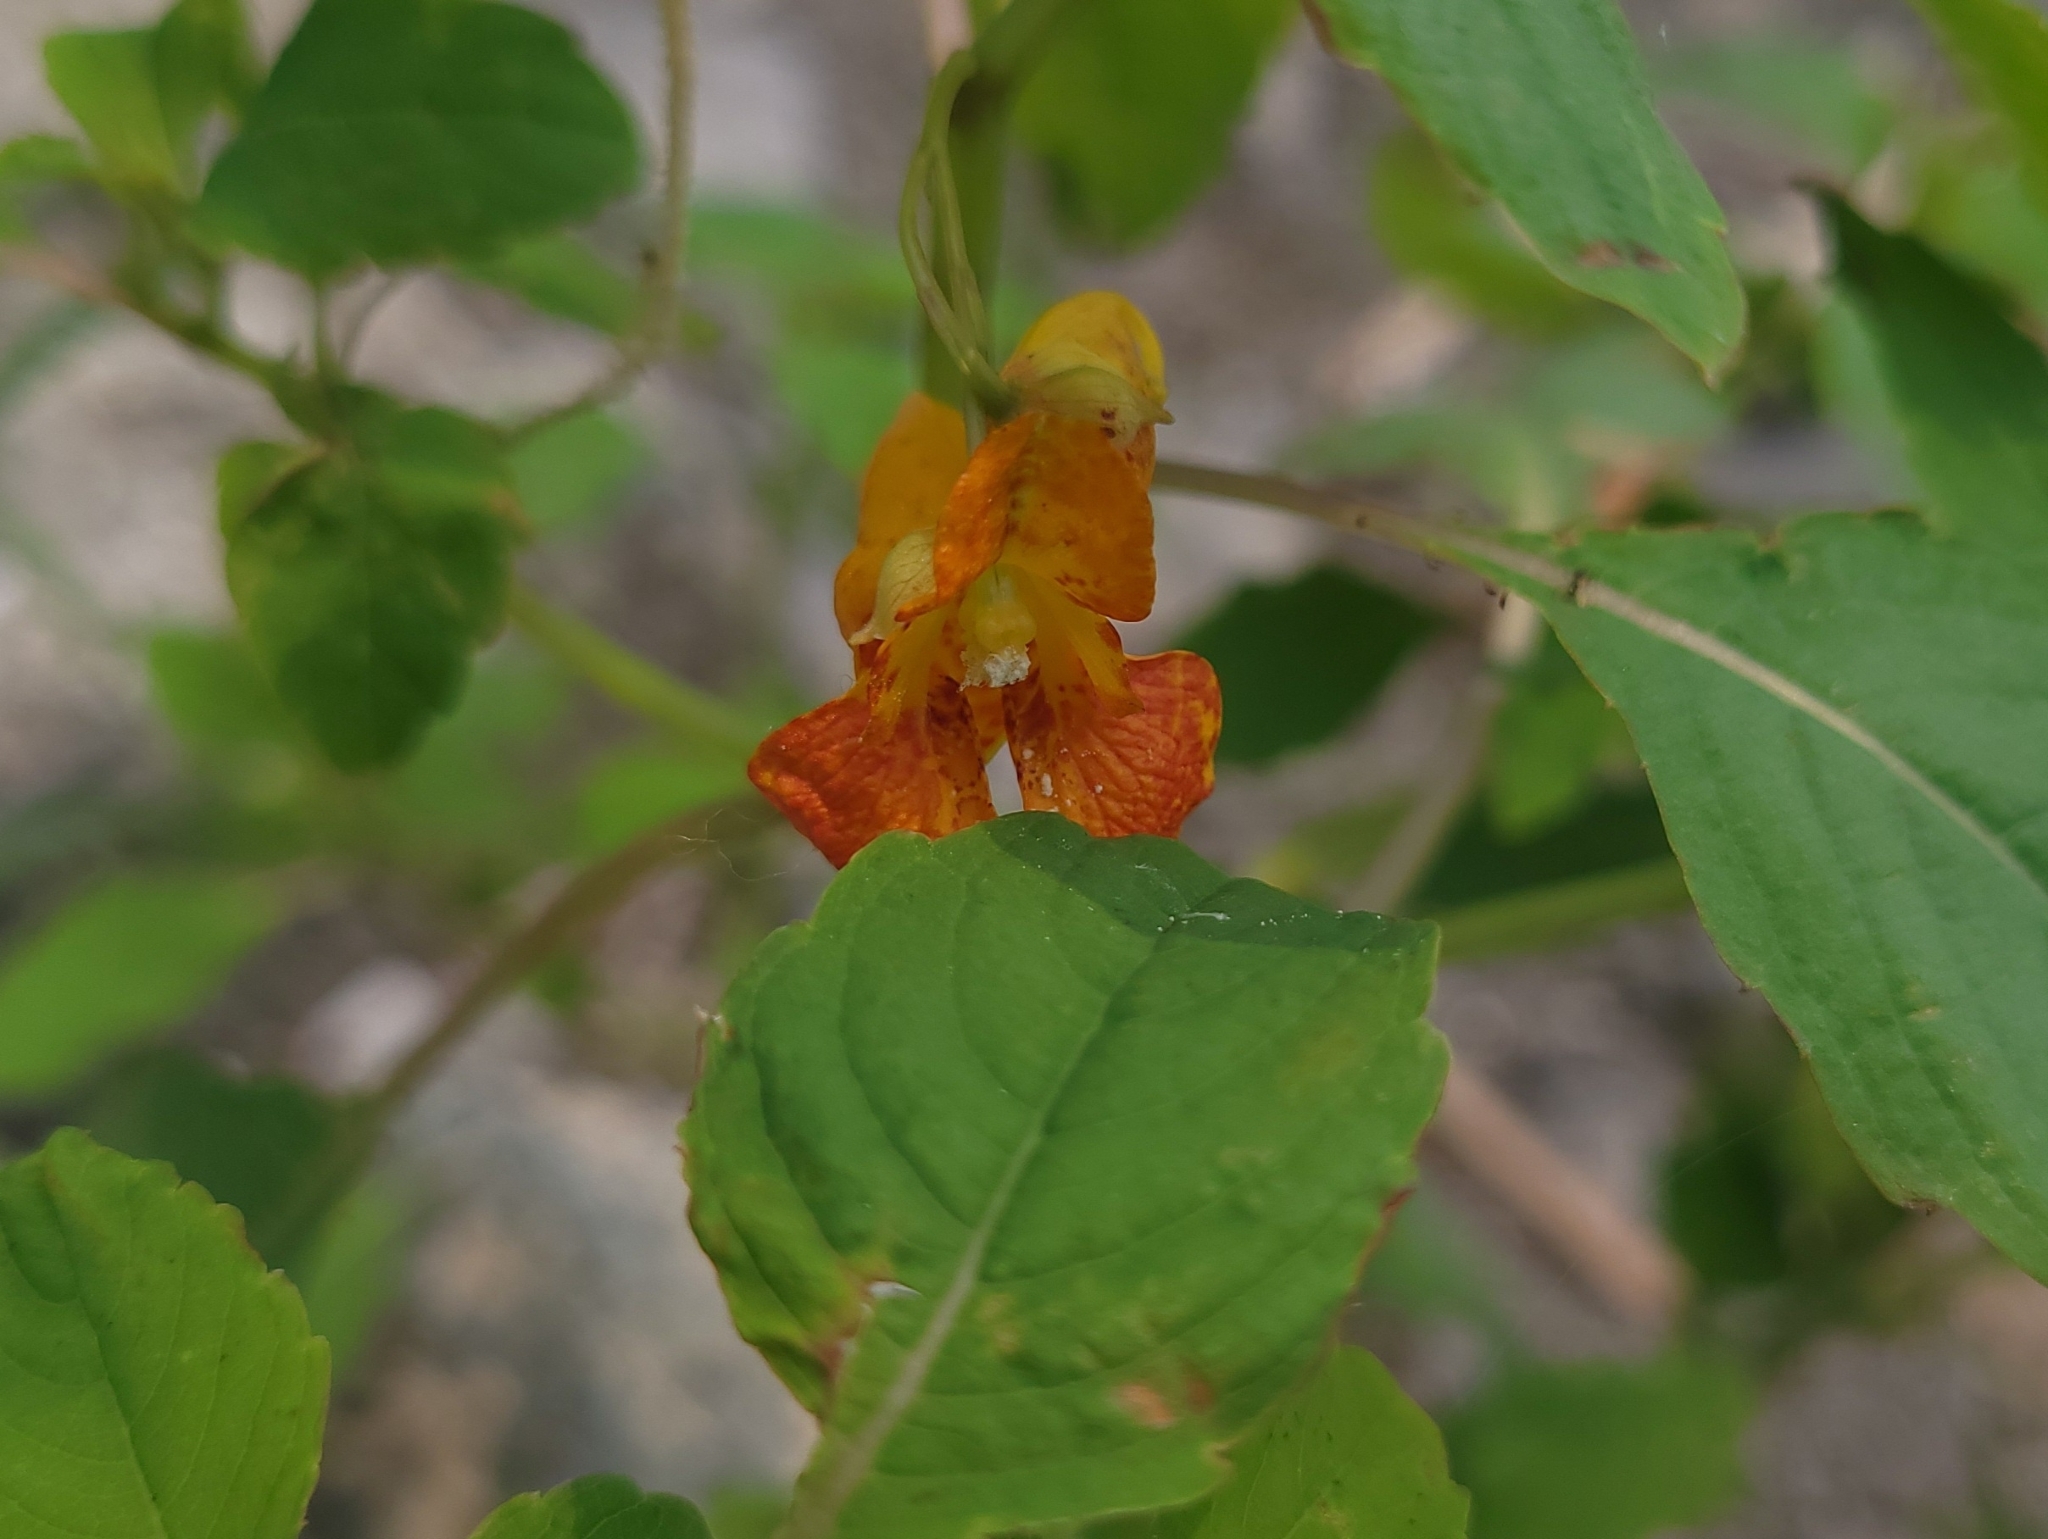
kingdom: Plantae
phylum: Tracheophyta
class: Magnoliopsida
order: Ericales
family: Balsaminaceae
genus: Impatiens
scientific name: Impatiens capensis
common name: Orange balsam
